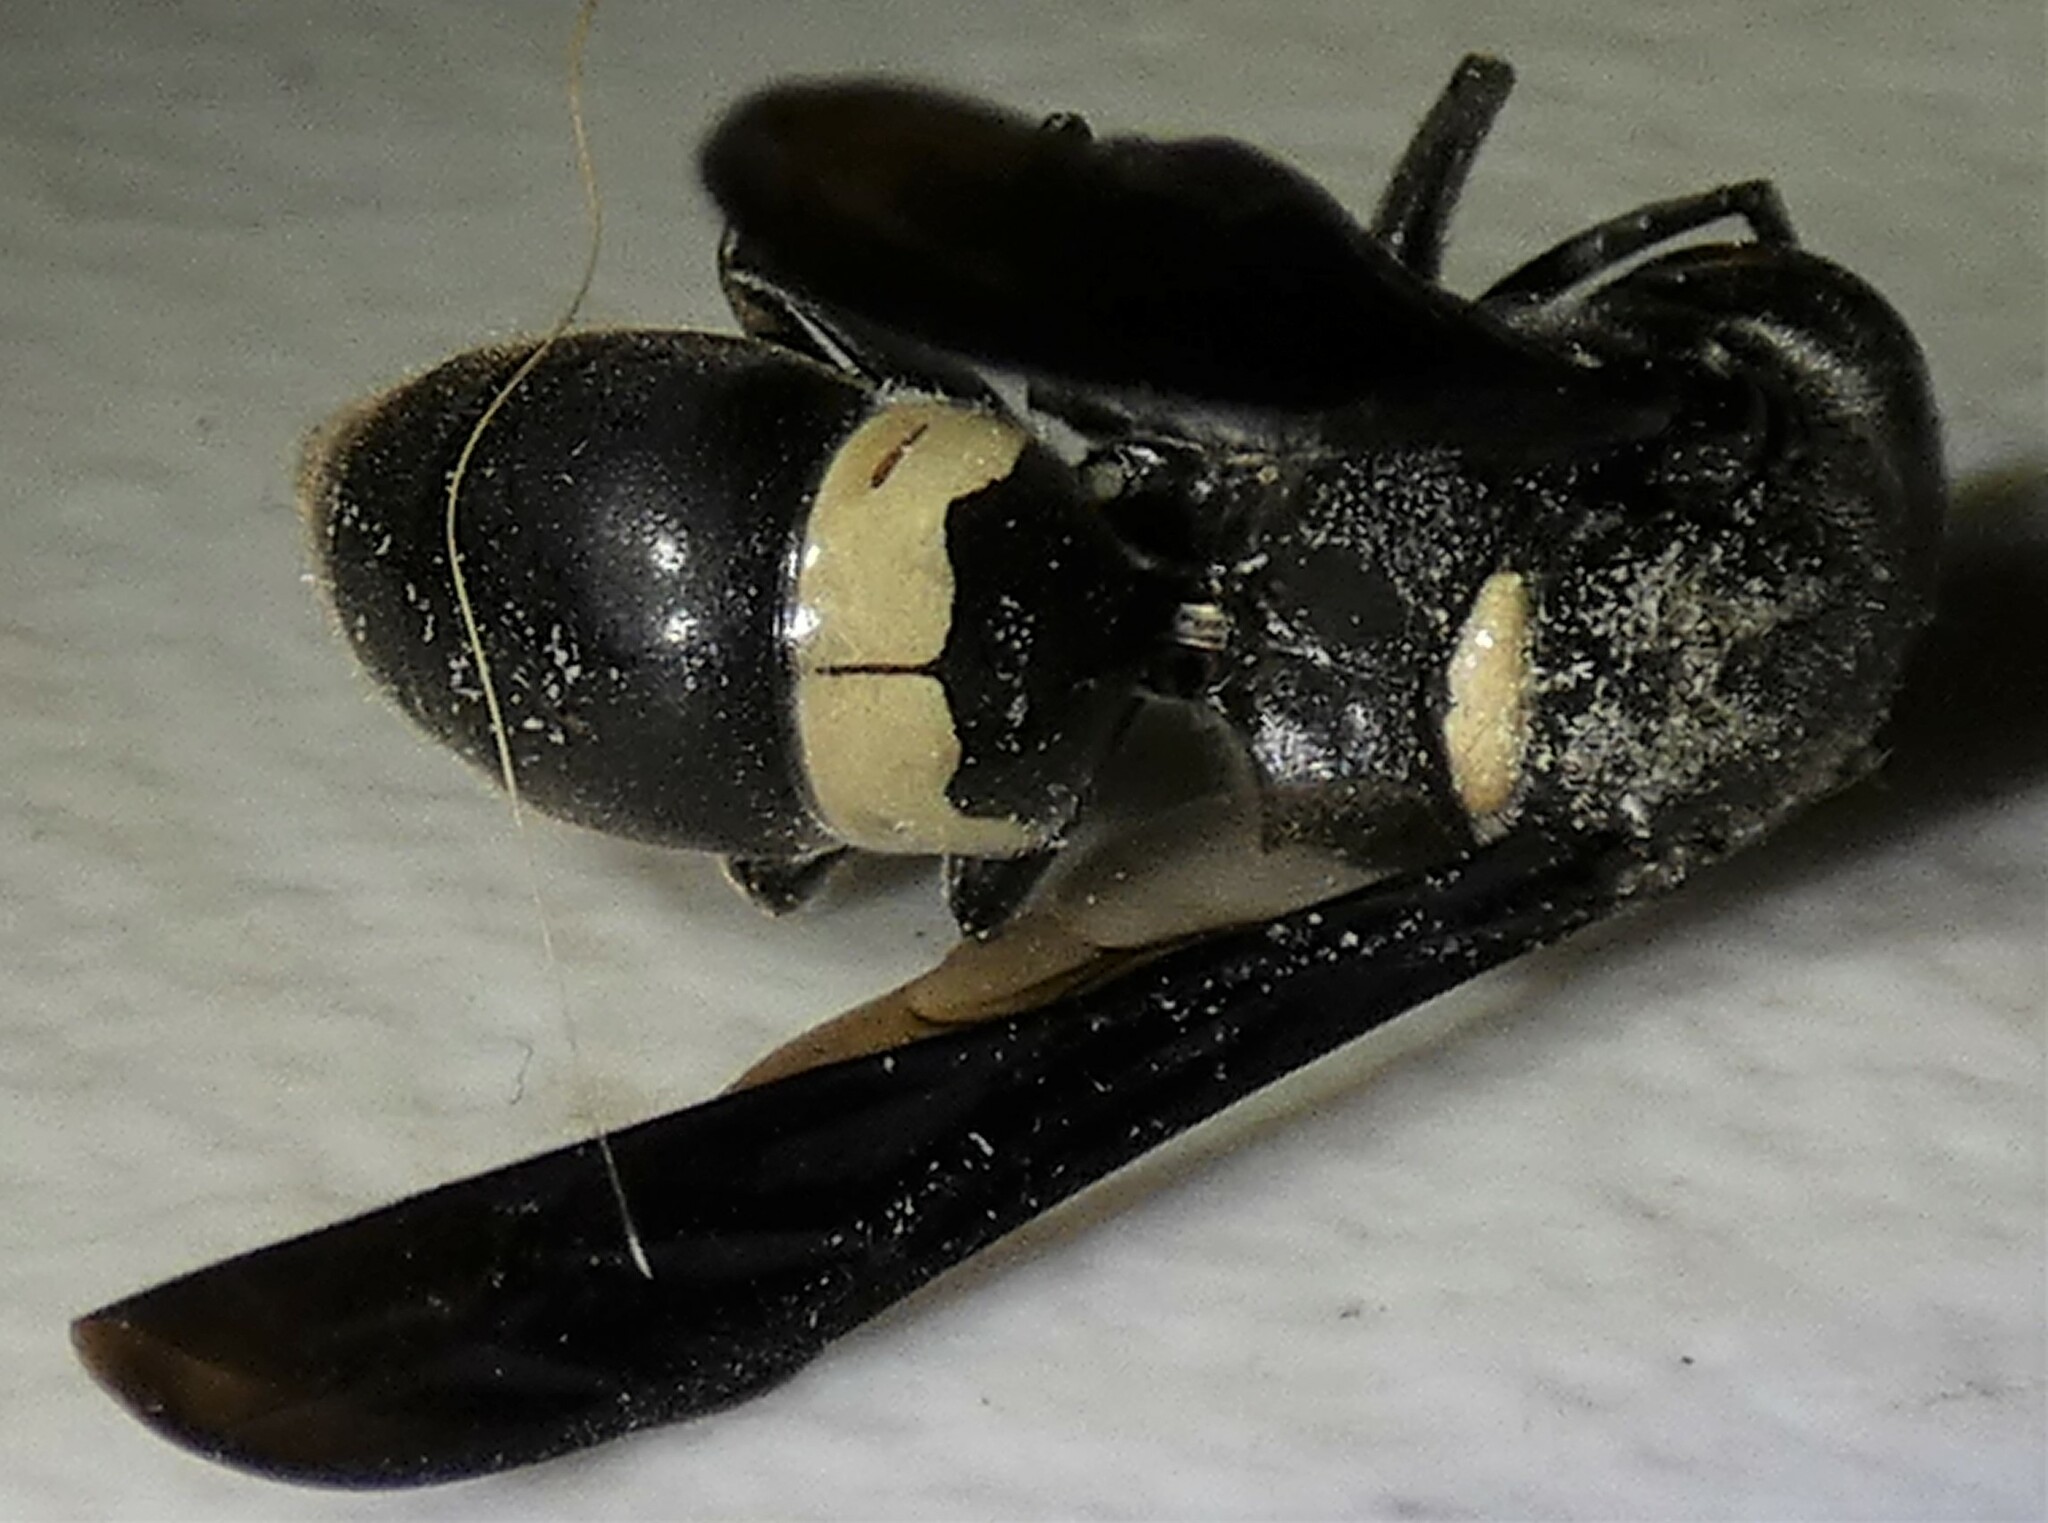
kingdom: Animalia
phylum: Arthropoda
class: Insecta
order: Hymenoptera
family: Eumenidae
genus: Monobia
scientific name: Monobia quadridens
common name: Four-toothed mason wasp
